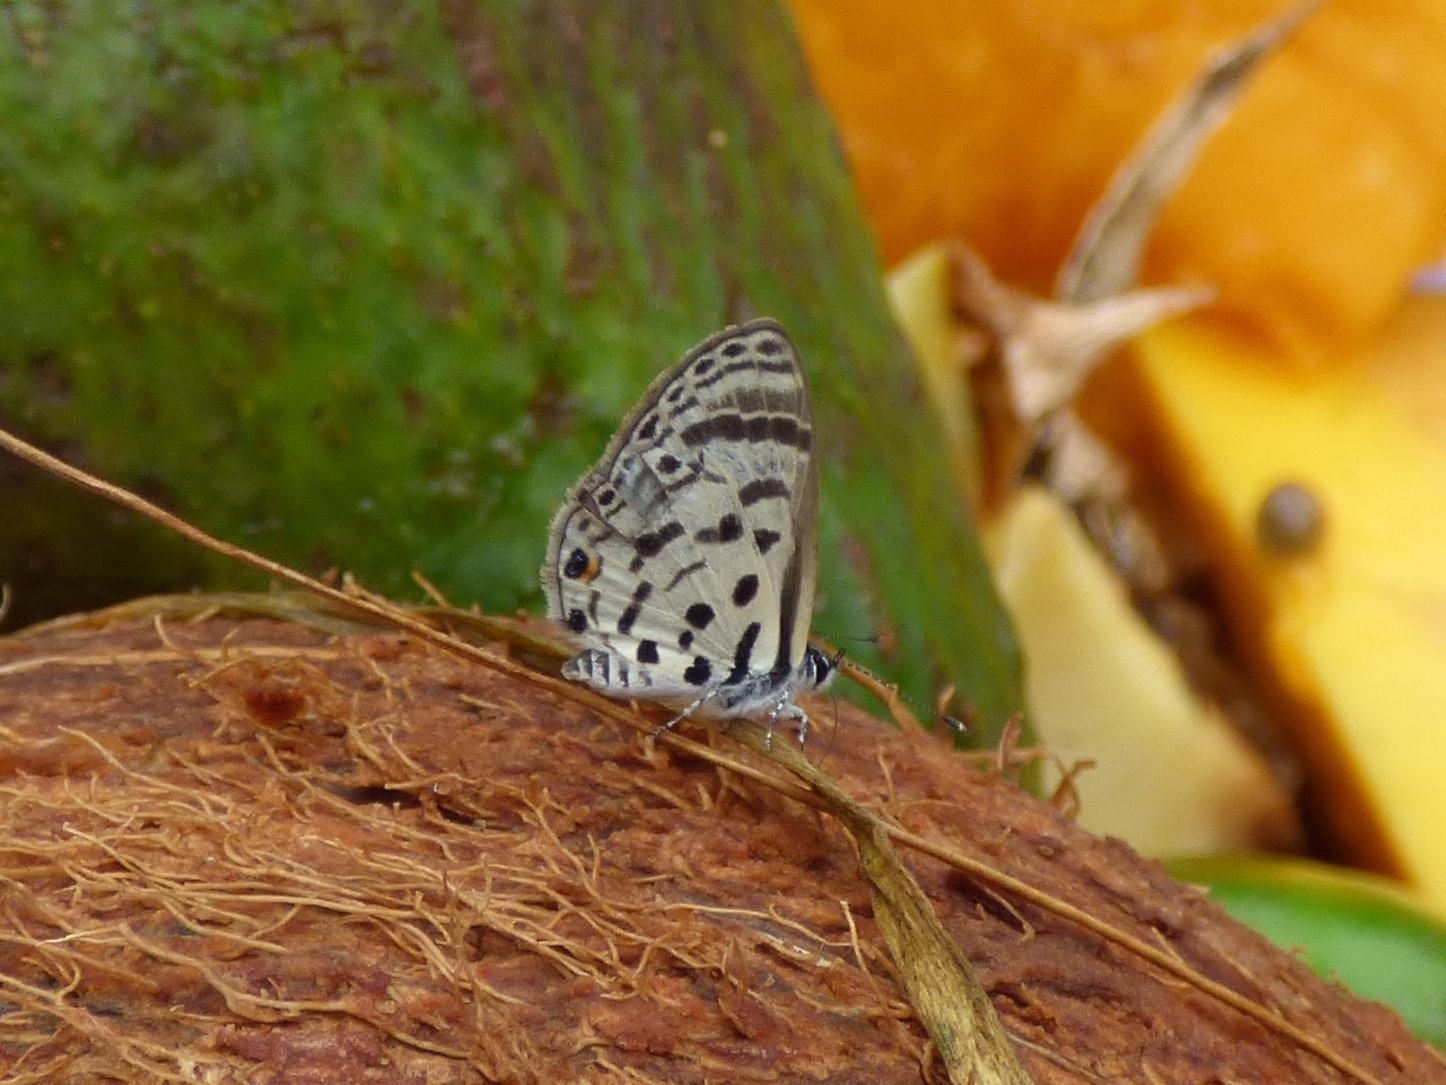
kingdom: Animalia
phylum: Arthropoda
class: Insecta
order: Lepidoptera
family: Lycaenidae
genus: Azanus
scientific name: Azanus mirza
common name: Mirza babul blue
